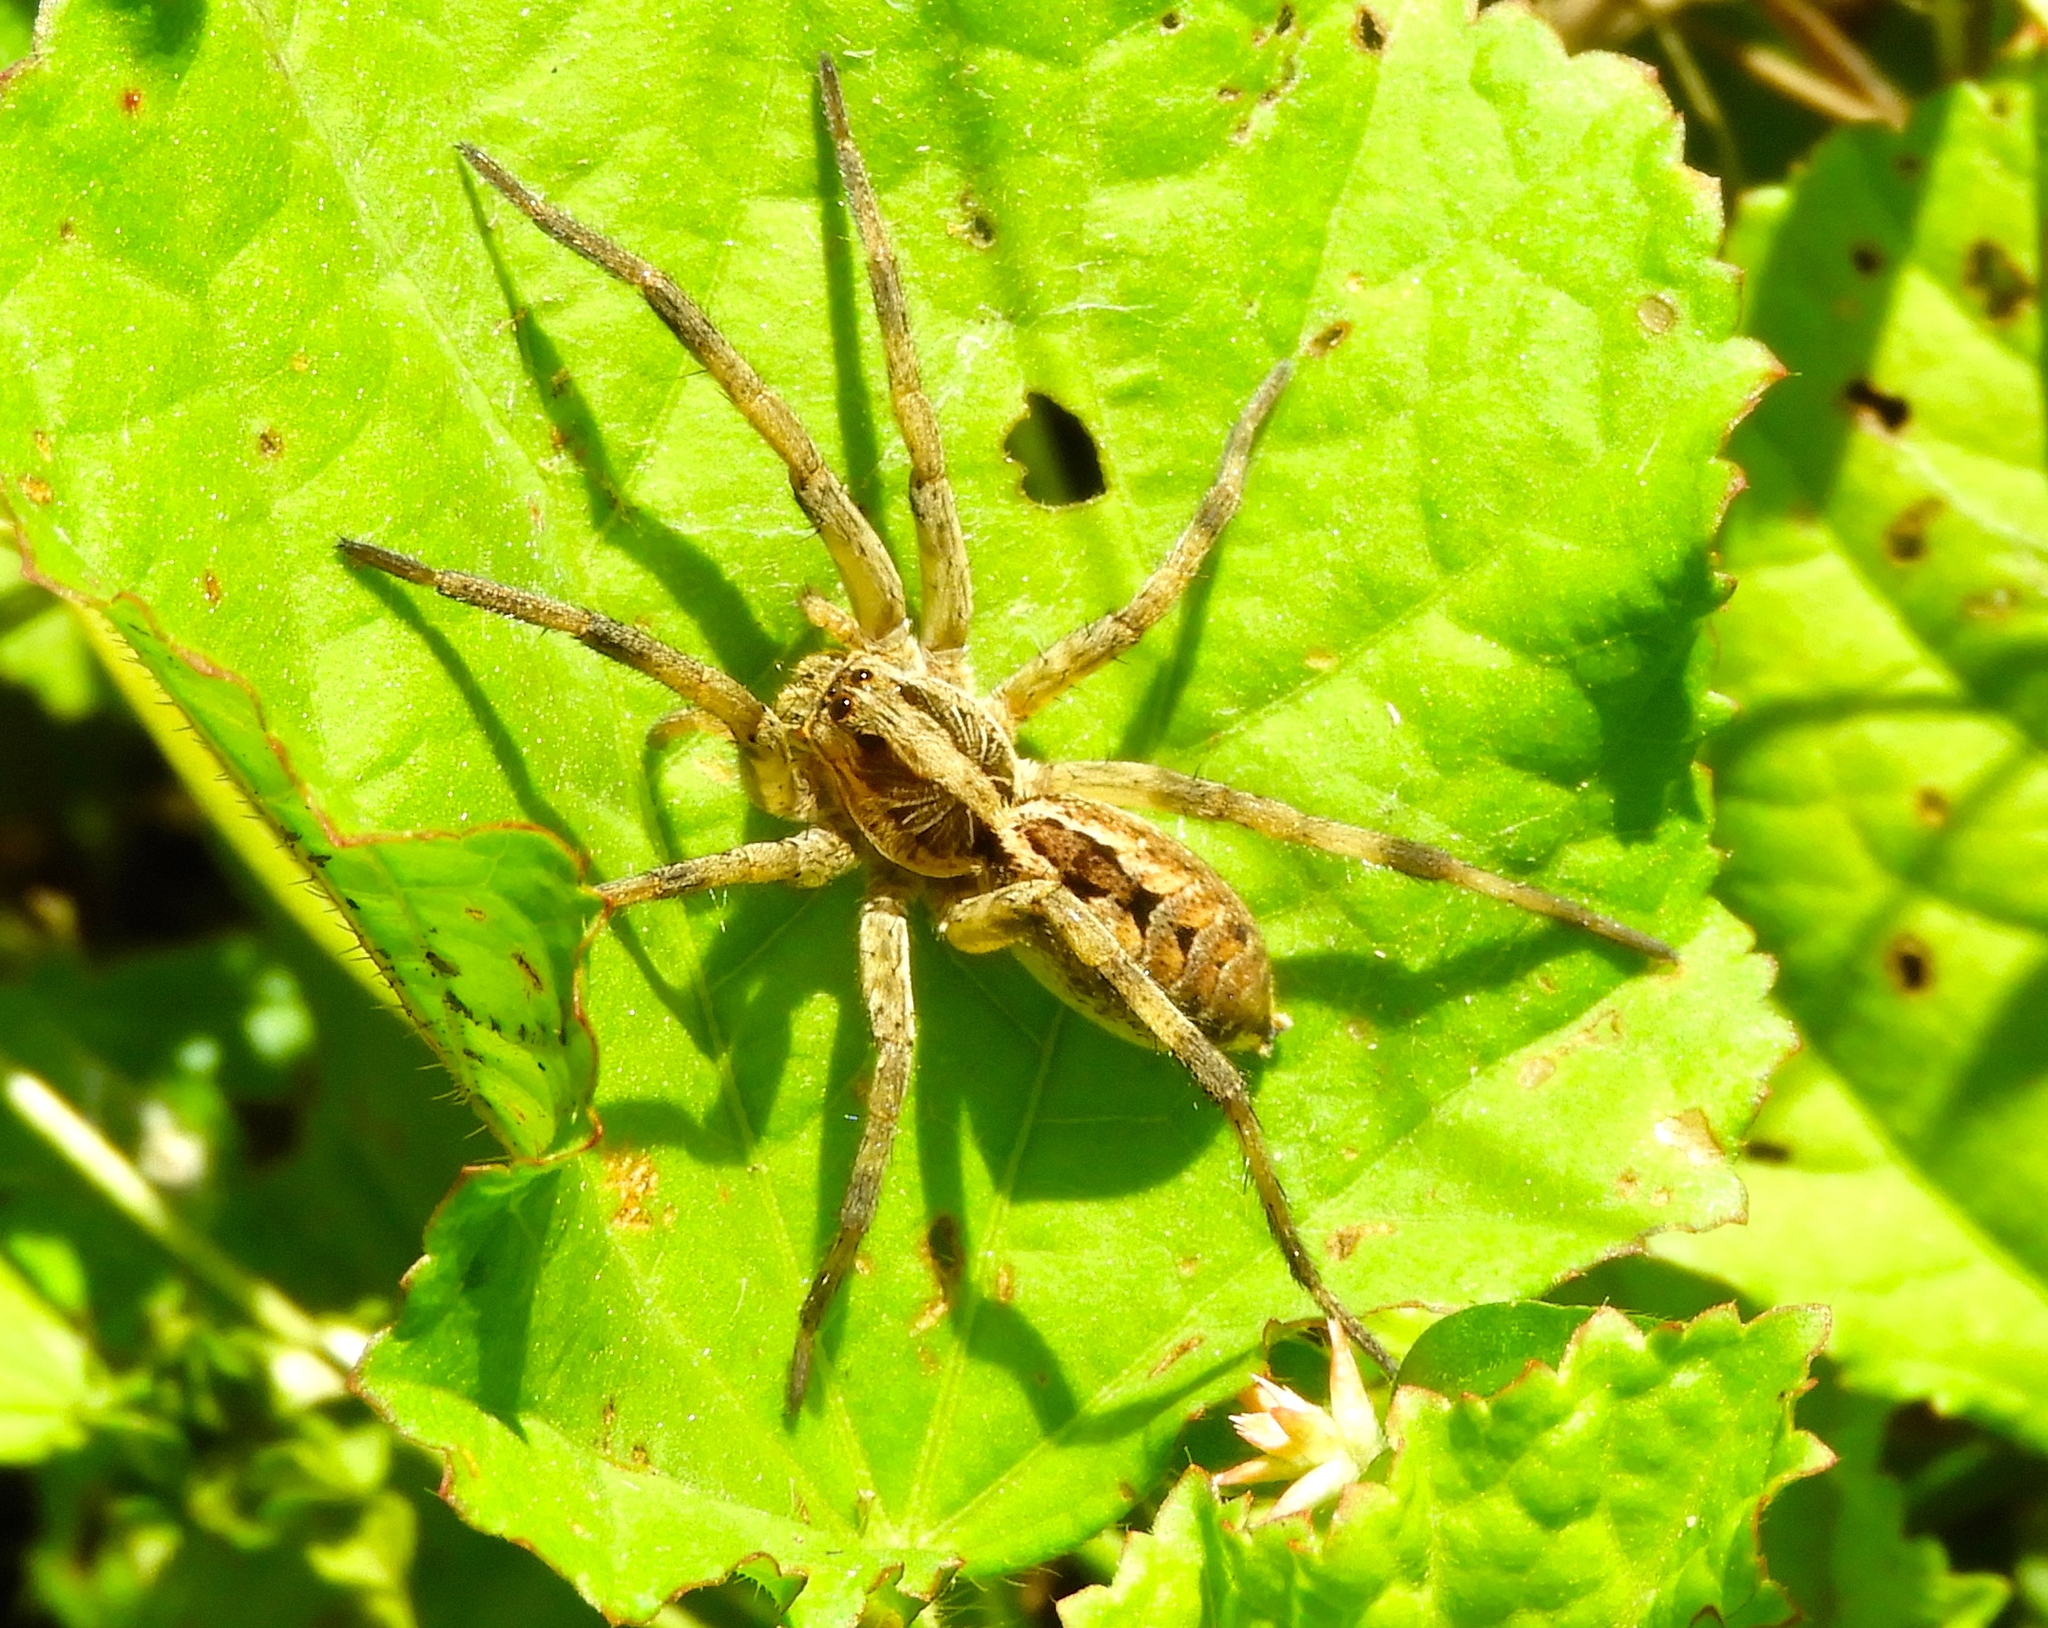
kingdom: Animalia
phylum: Arthropoda
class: Arachnida
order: Araneae
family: Lycosidae
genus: Hogna
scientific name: Hogna
